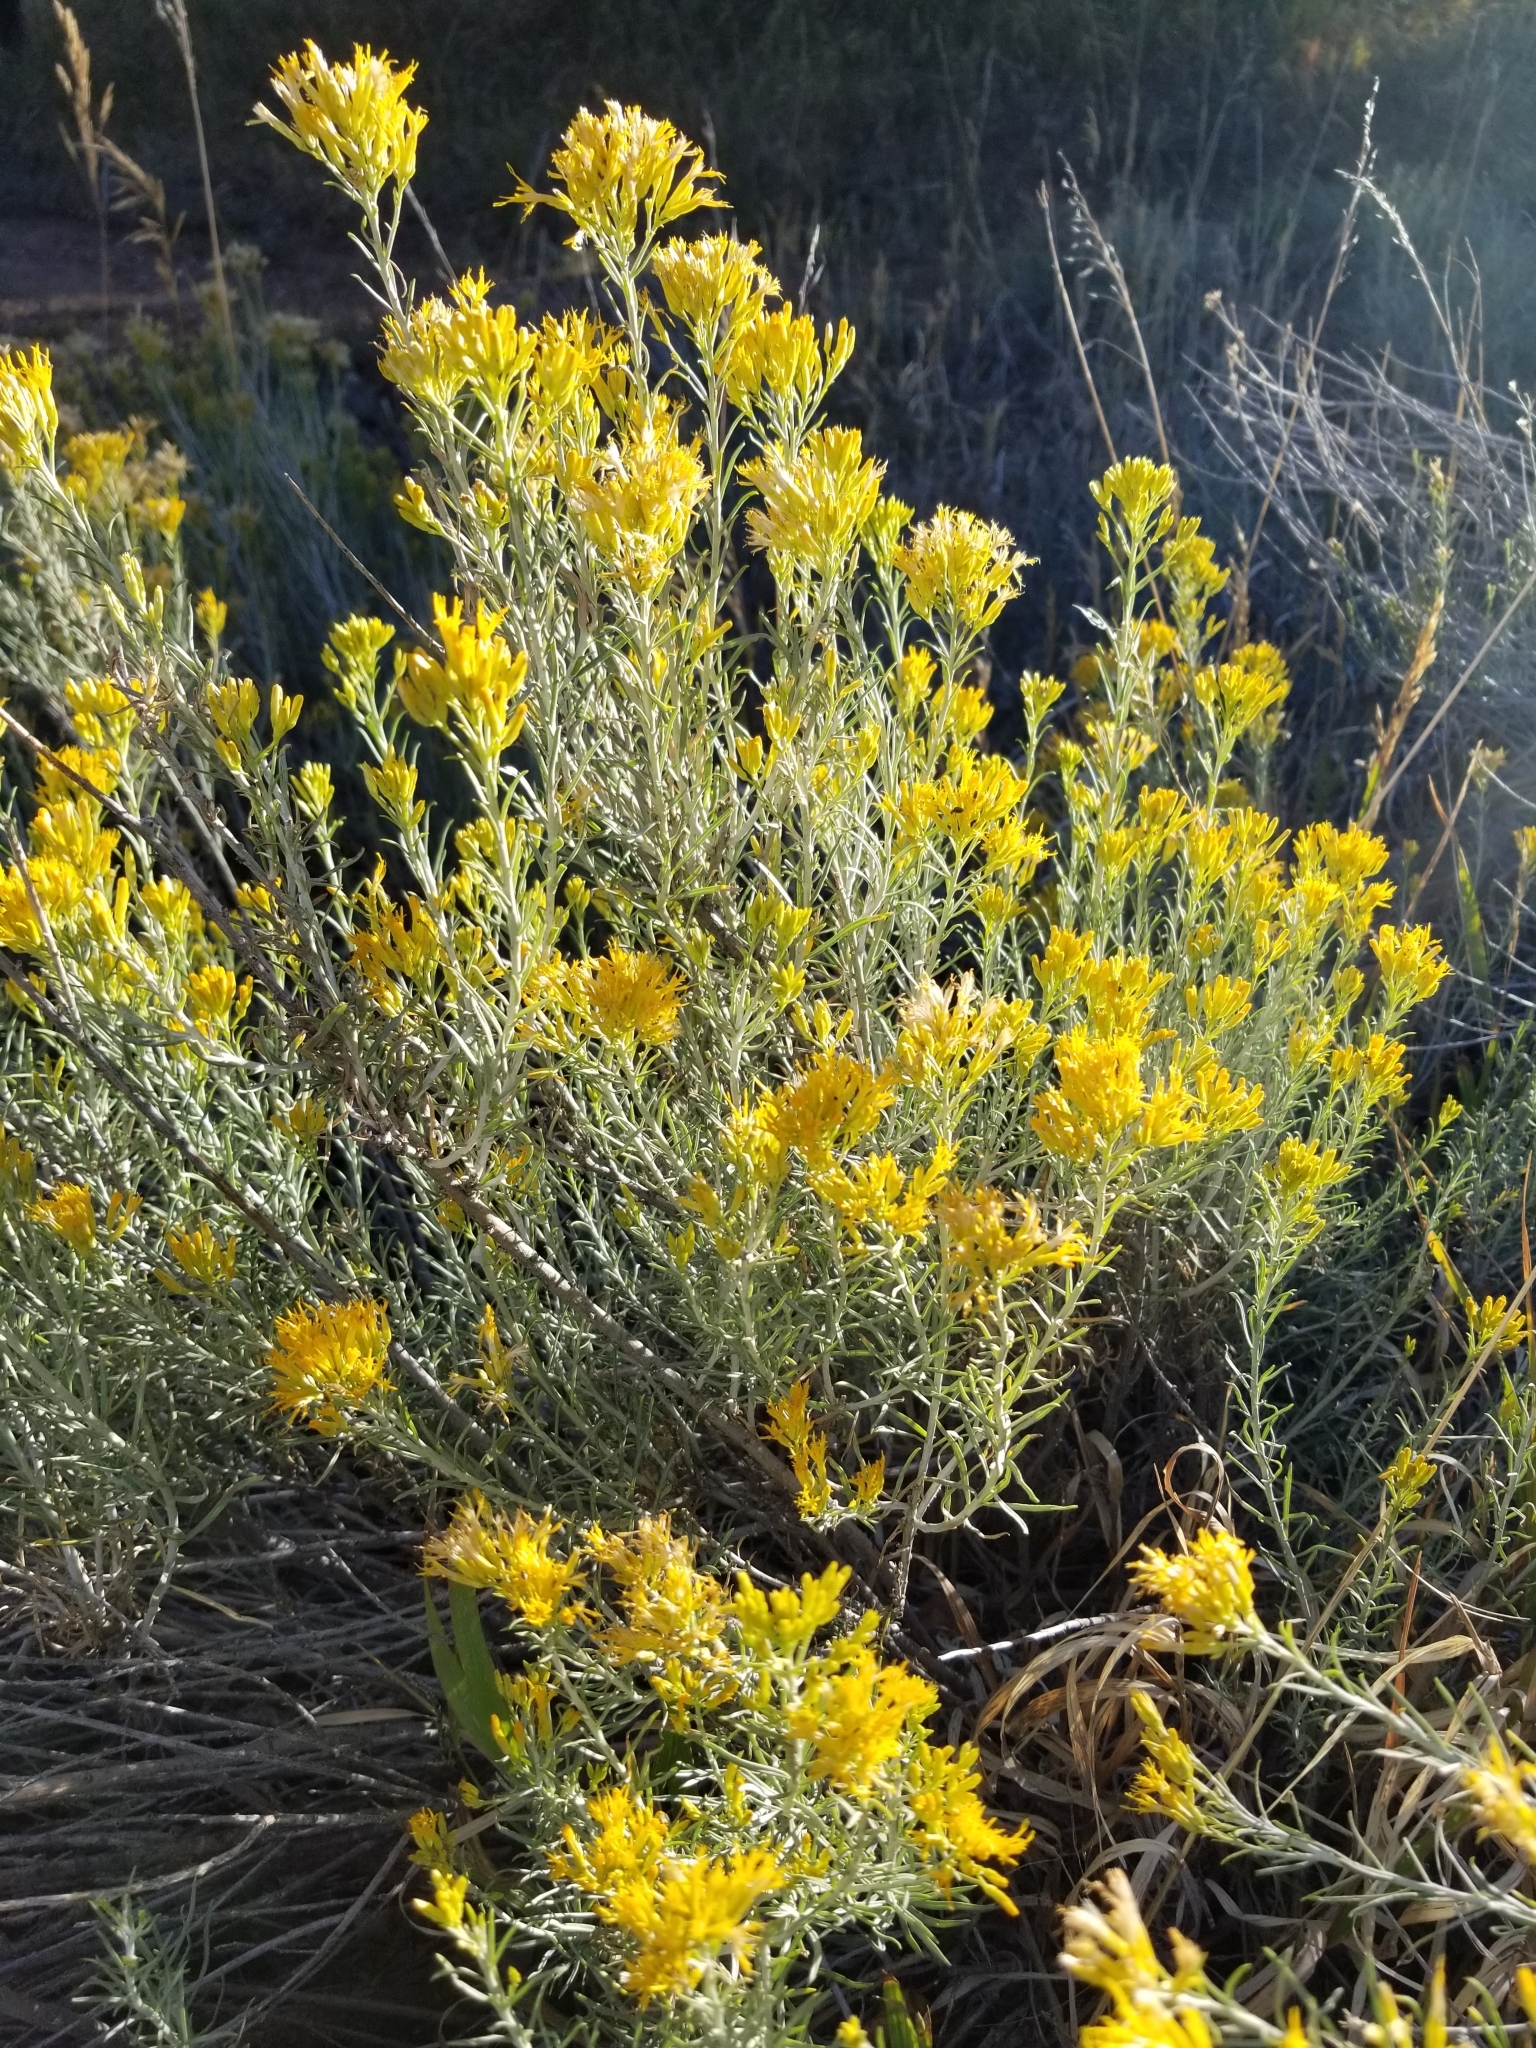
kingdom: Plantae
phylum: Tracheophyta
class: Magnoliopsida
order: Asterales
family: Asteraceae
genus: Ericameria
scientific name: Ericameria nauseosa
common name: Rubber rabbitbrush
